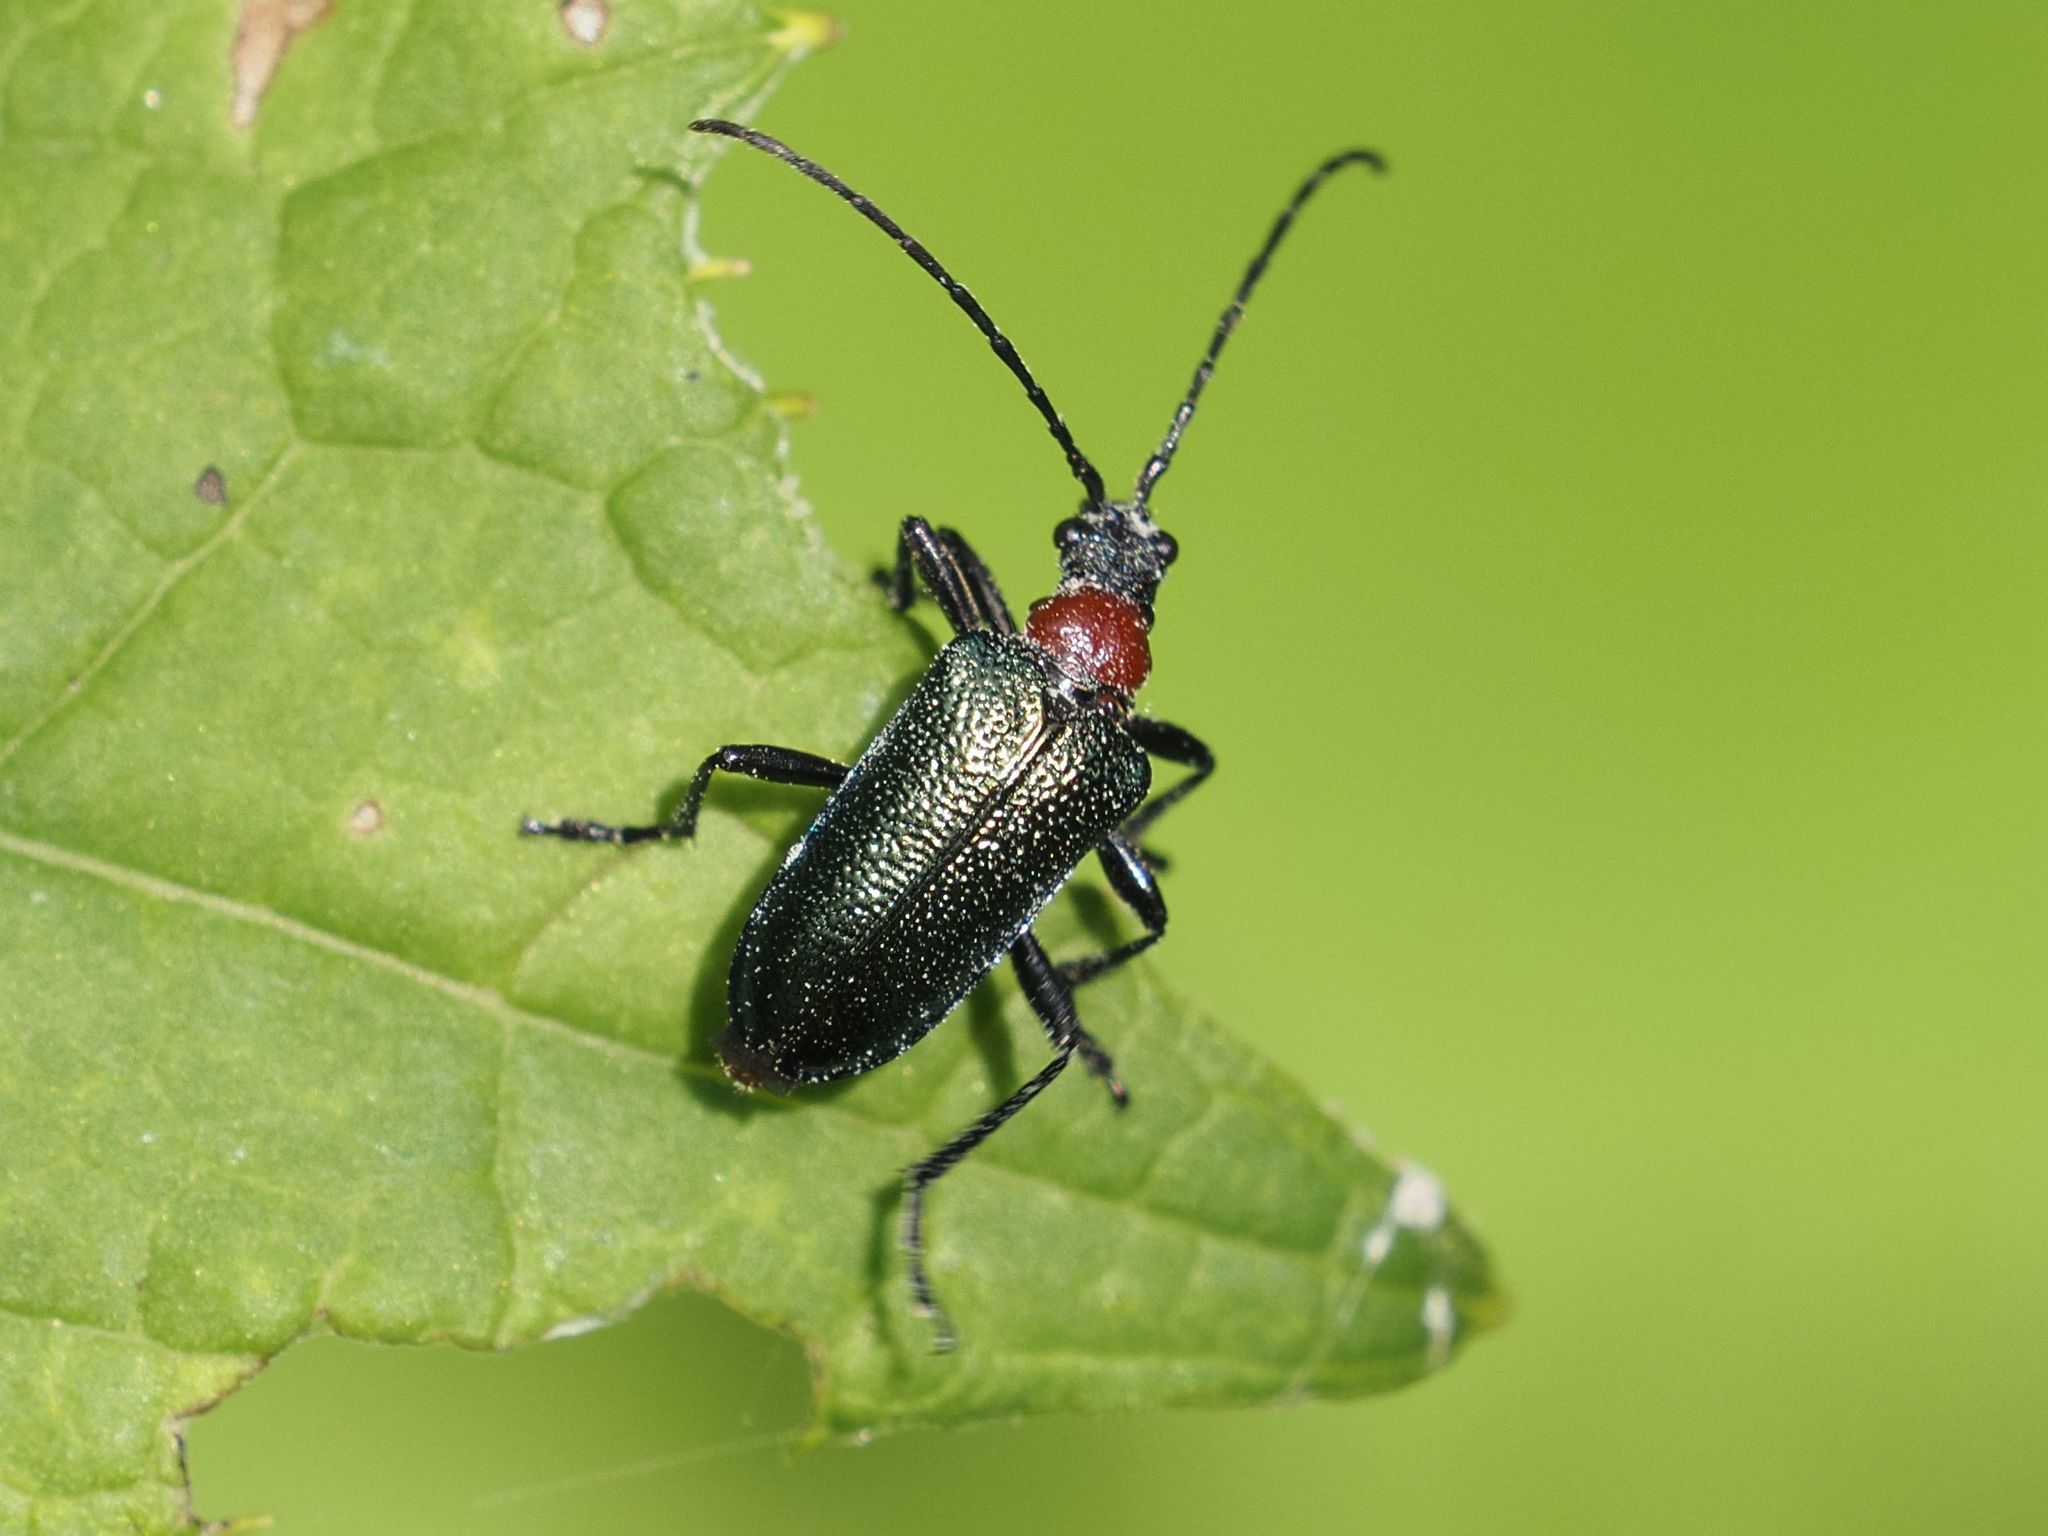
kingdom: Animalia
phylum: Arthropoda
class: Insecta
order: Coleoptera
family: Cerambycidae
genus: Gaurotes
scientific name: Gaurotes virginea
